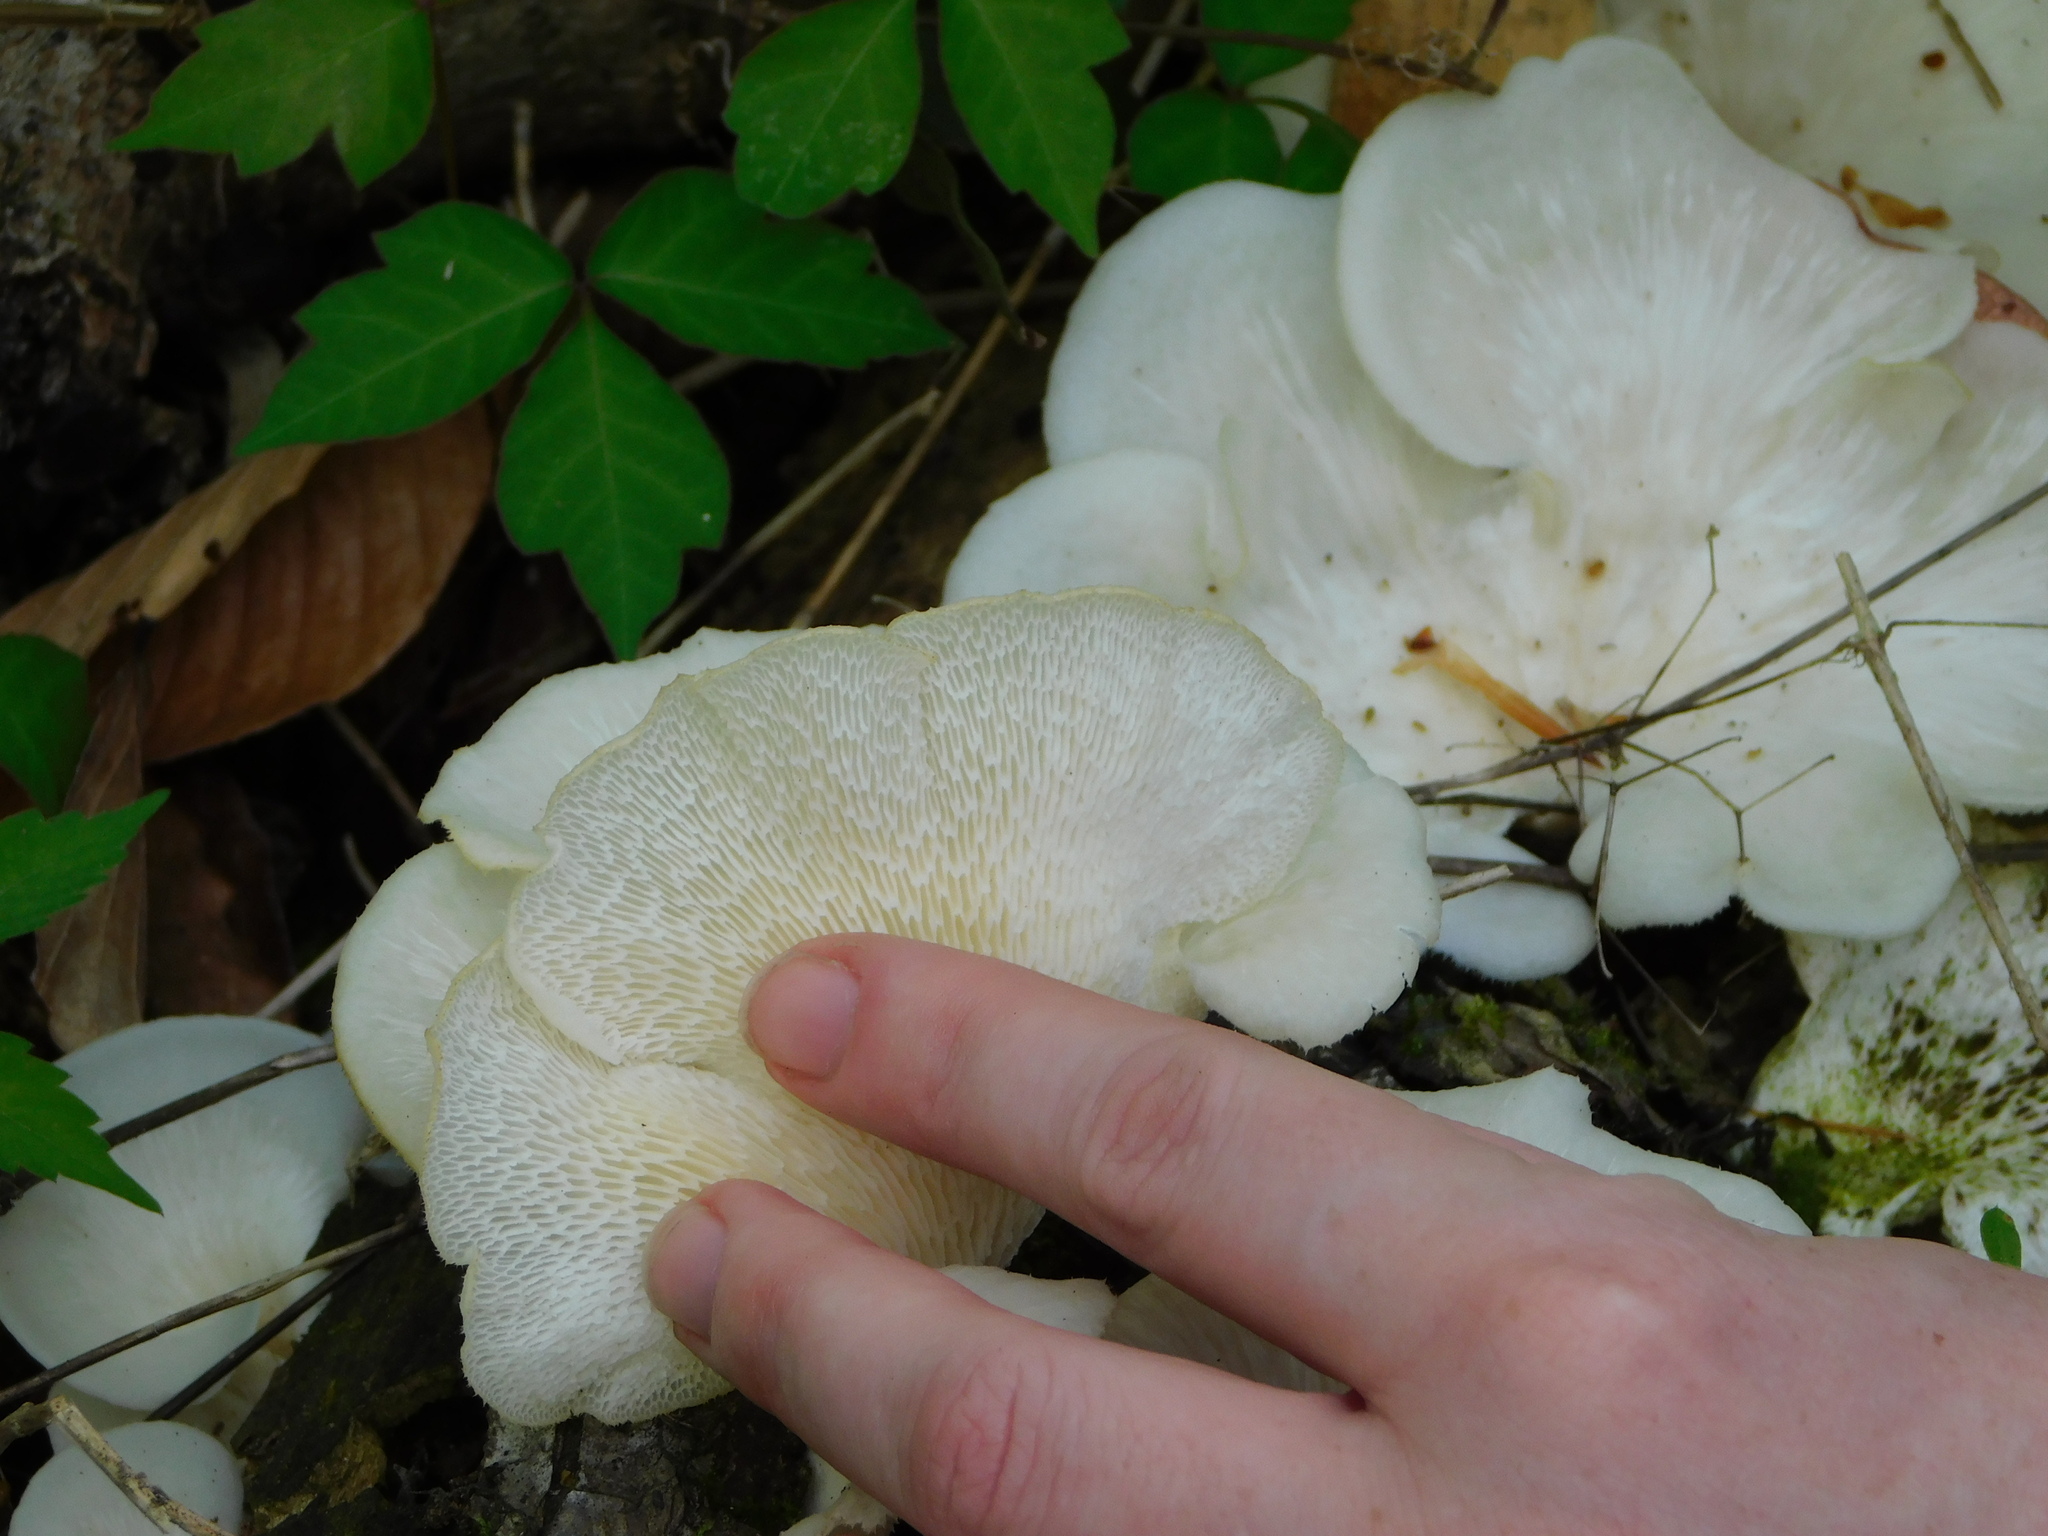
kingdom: Fungi
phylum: Basidiomycota
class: Agaricomycetes
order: Polyporales
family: Polyporaceae
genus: Favolus
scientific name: Favolus tenuiculus
